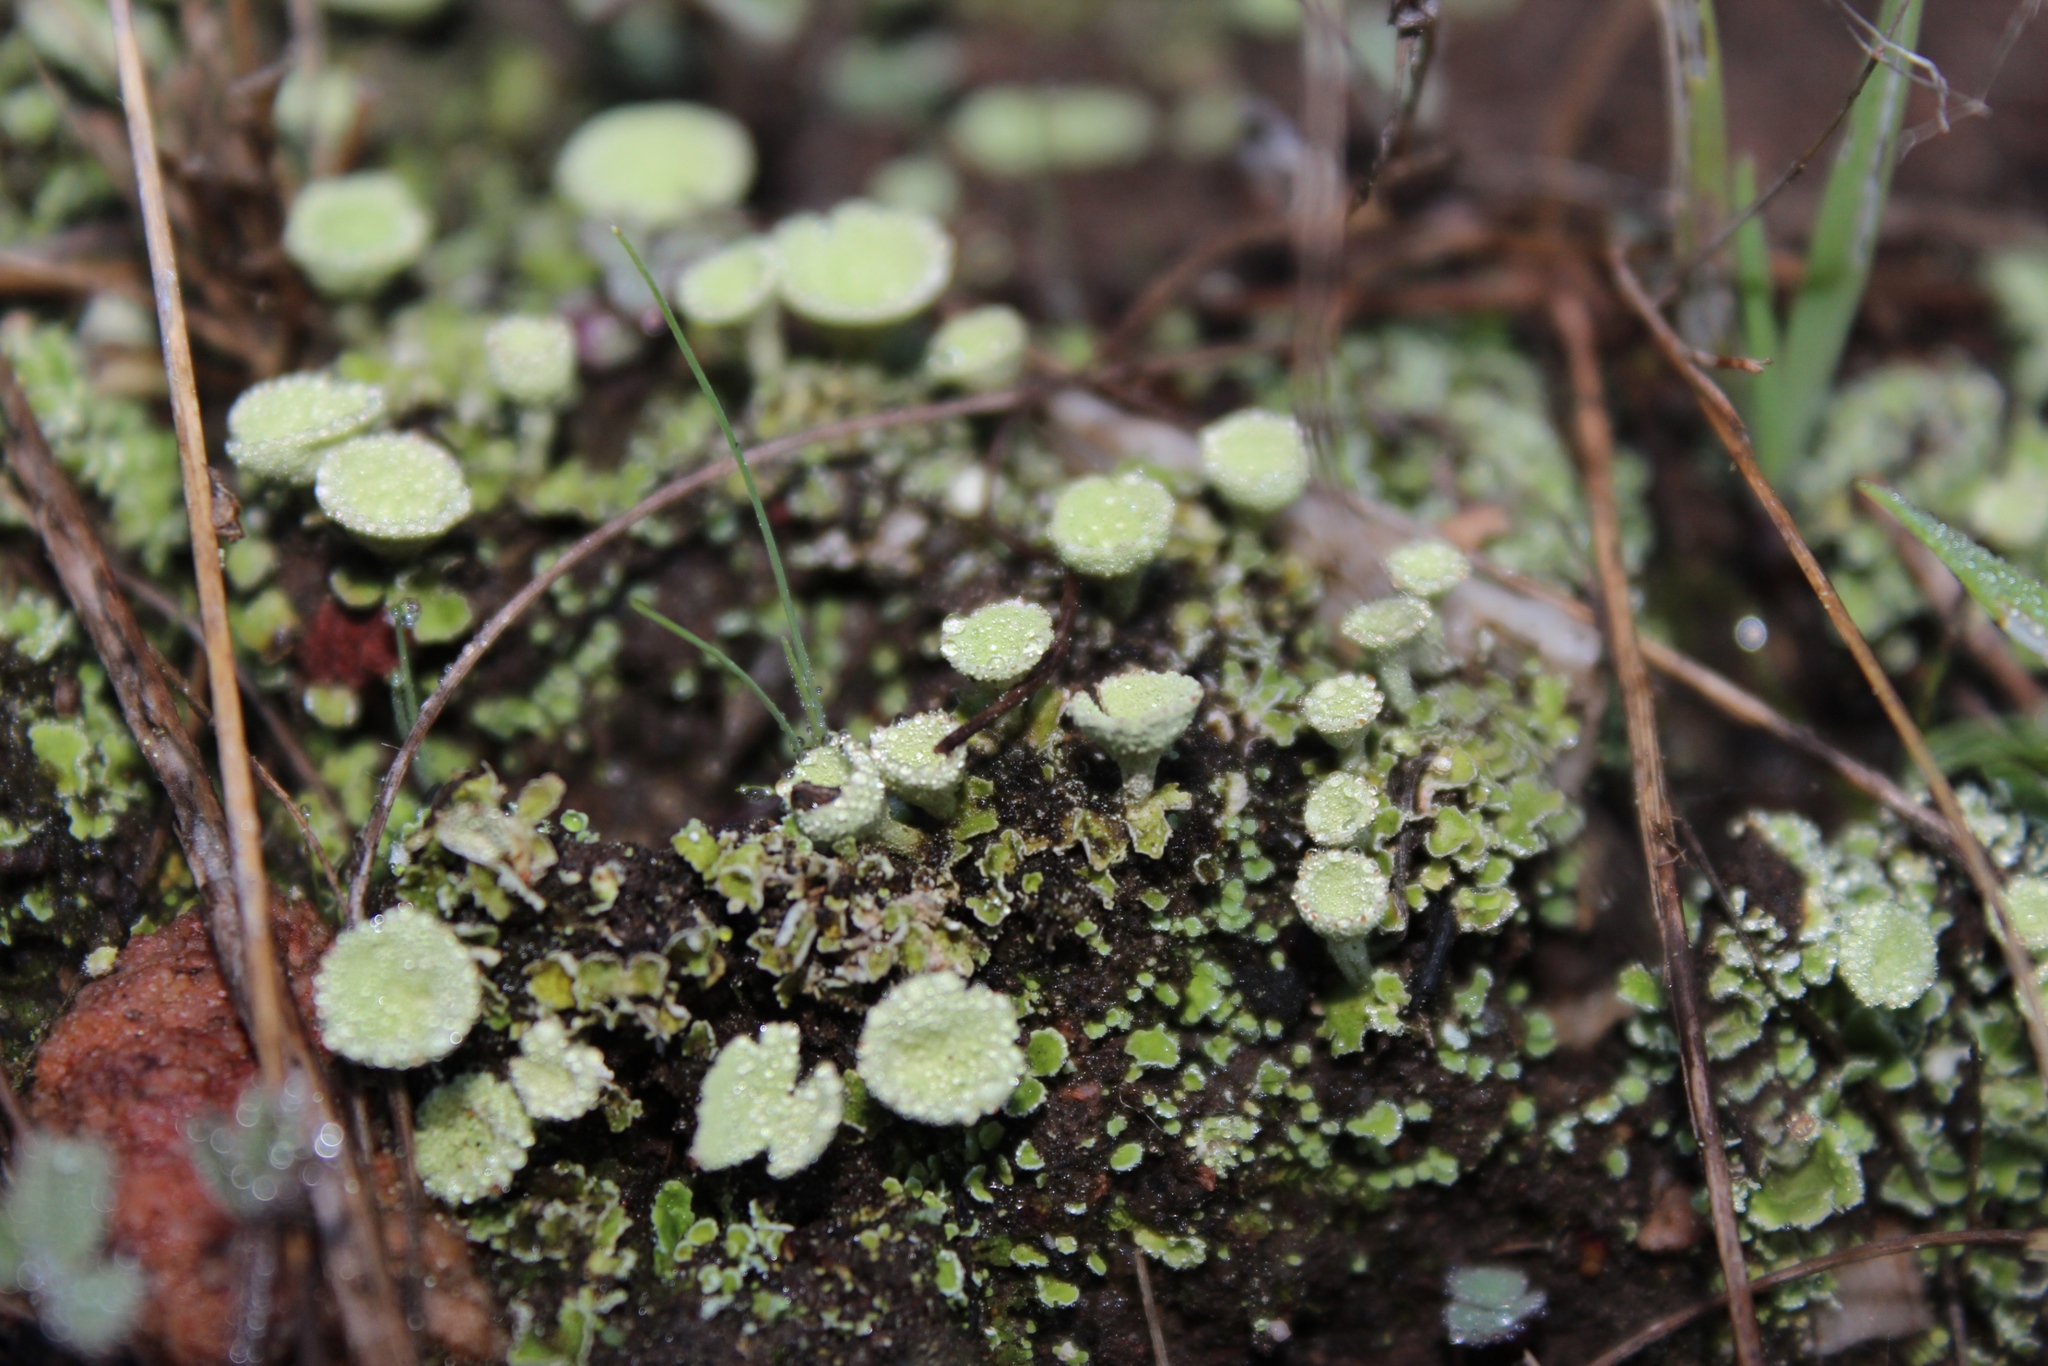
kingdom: Fungi
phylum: Ascomycota
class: Lecanoromycetes
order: Lecanorales
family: Cladoniaceae
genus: Cladonia
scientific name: Cladonia pyxidata
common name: Pebbled pixie cup
